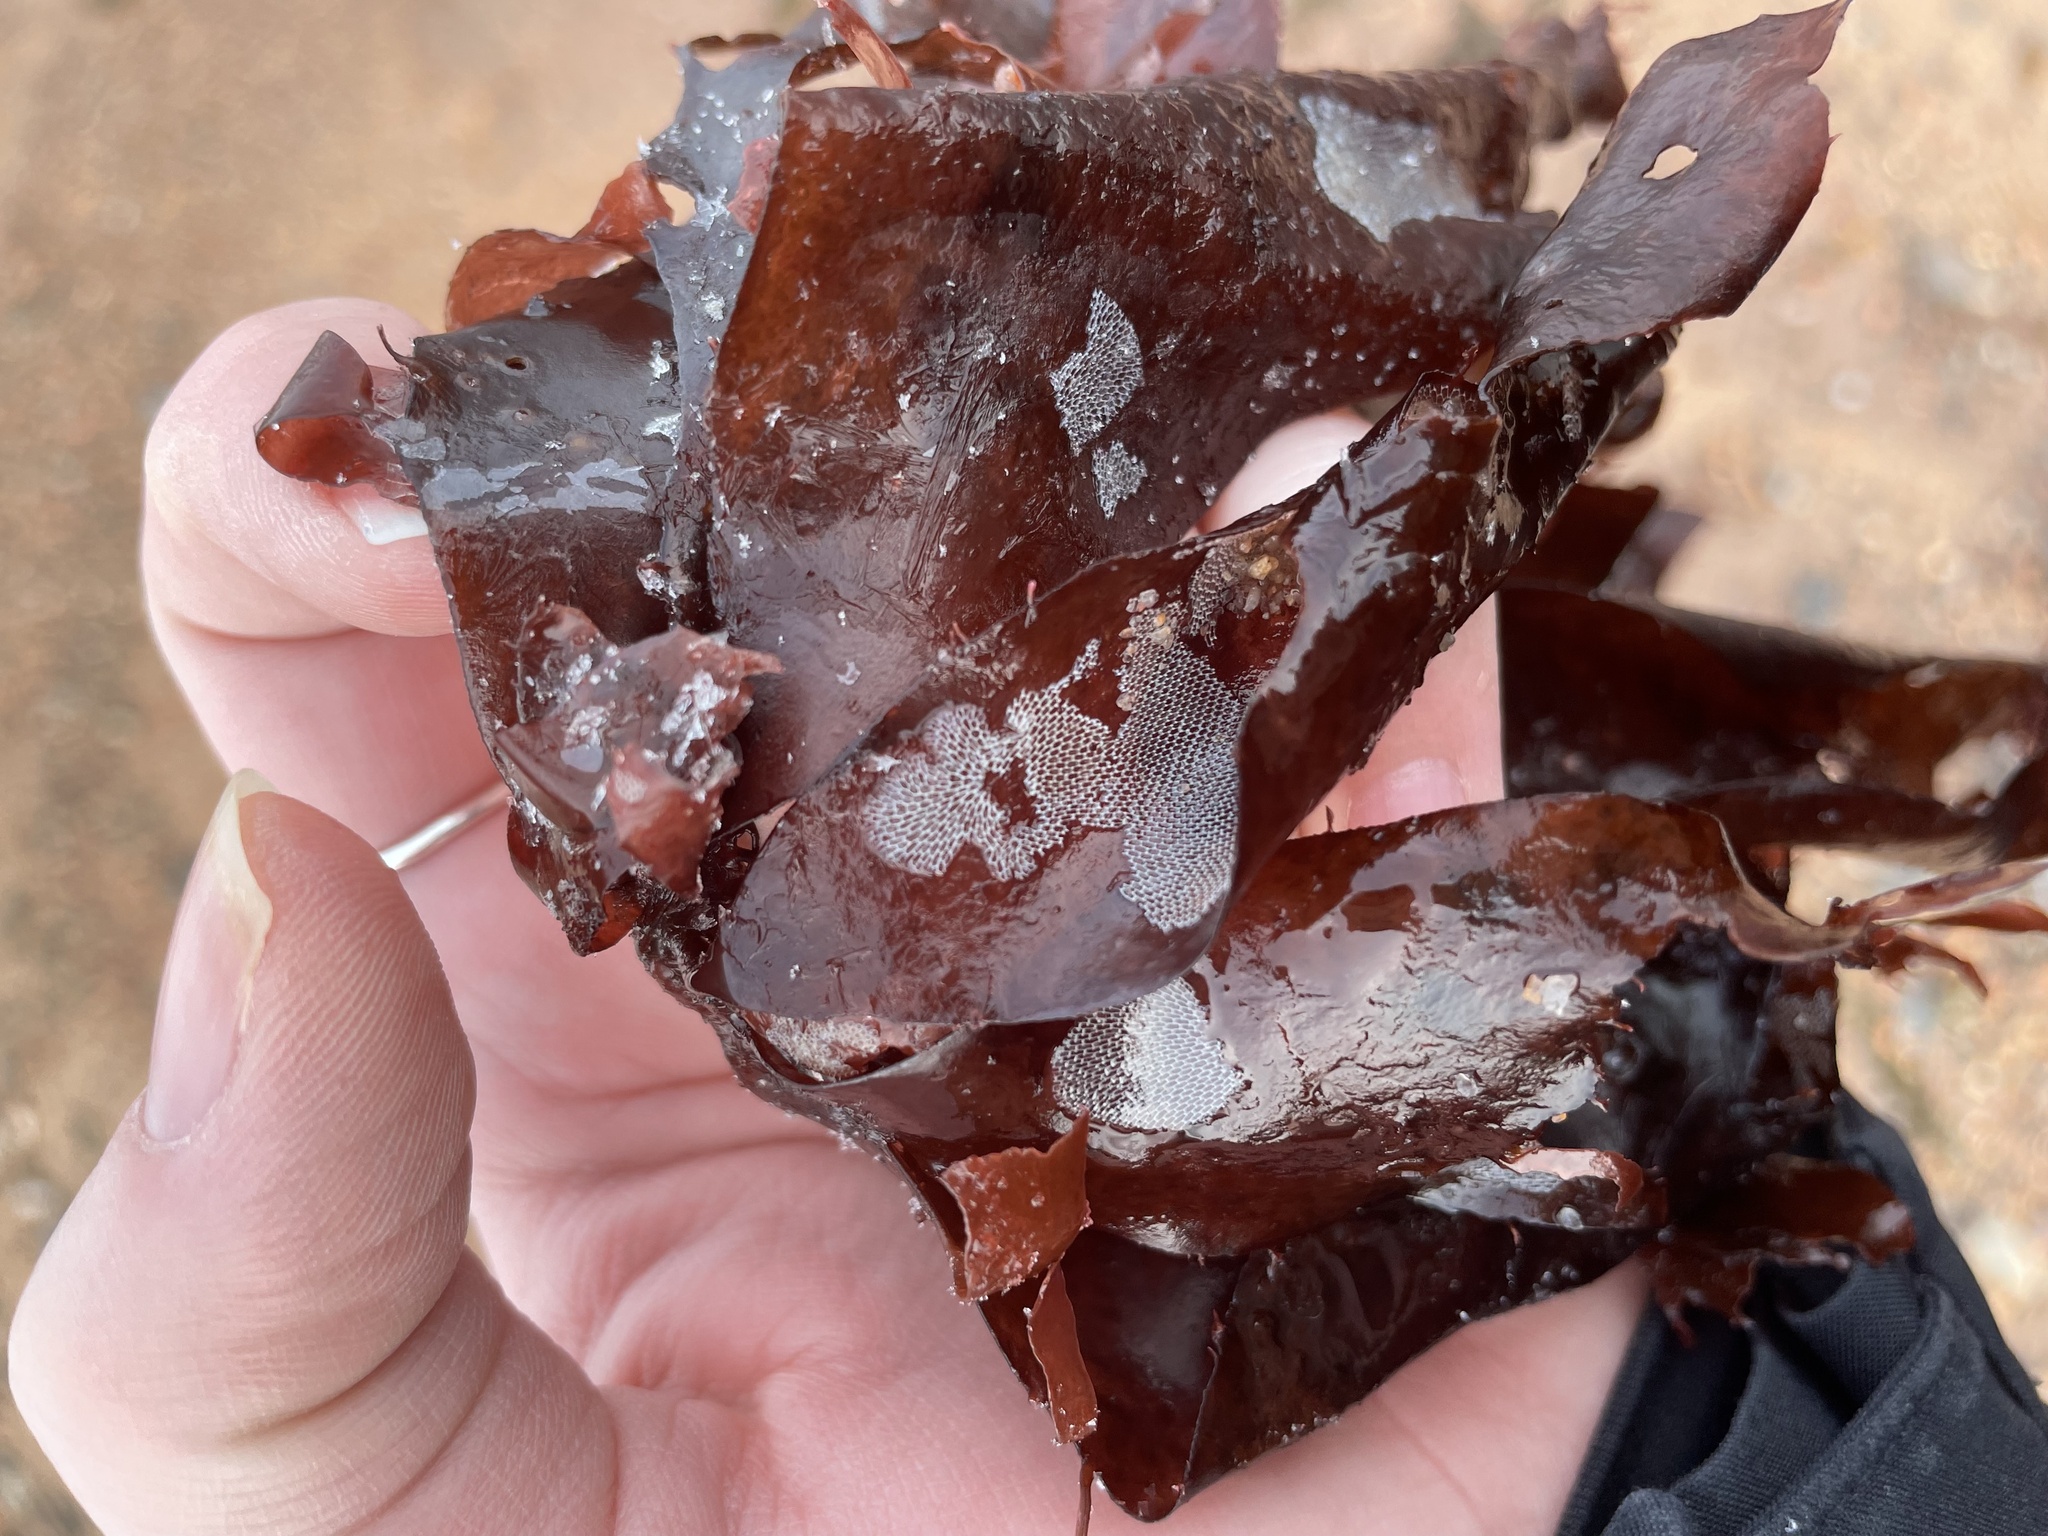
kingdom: Animalia
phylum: Bryozoa
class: Gymnolaemata
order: Cheilostomatida
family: Membraniporidae
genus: Membranipora
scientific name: Membranipora membranacea
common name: Sea mat
